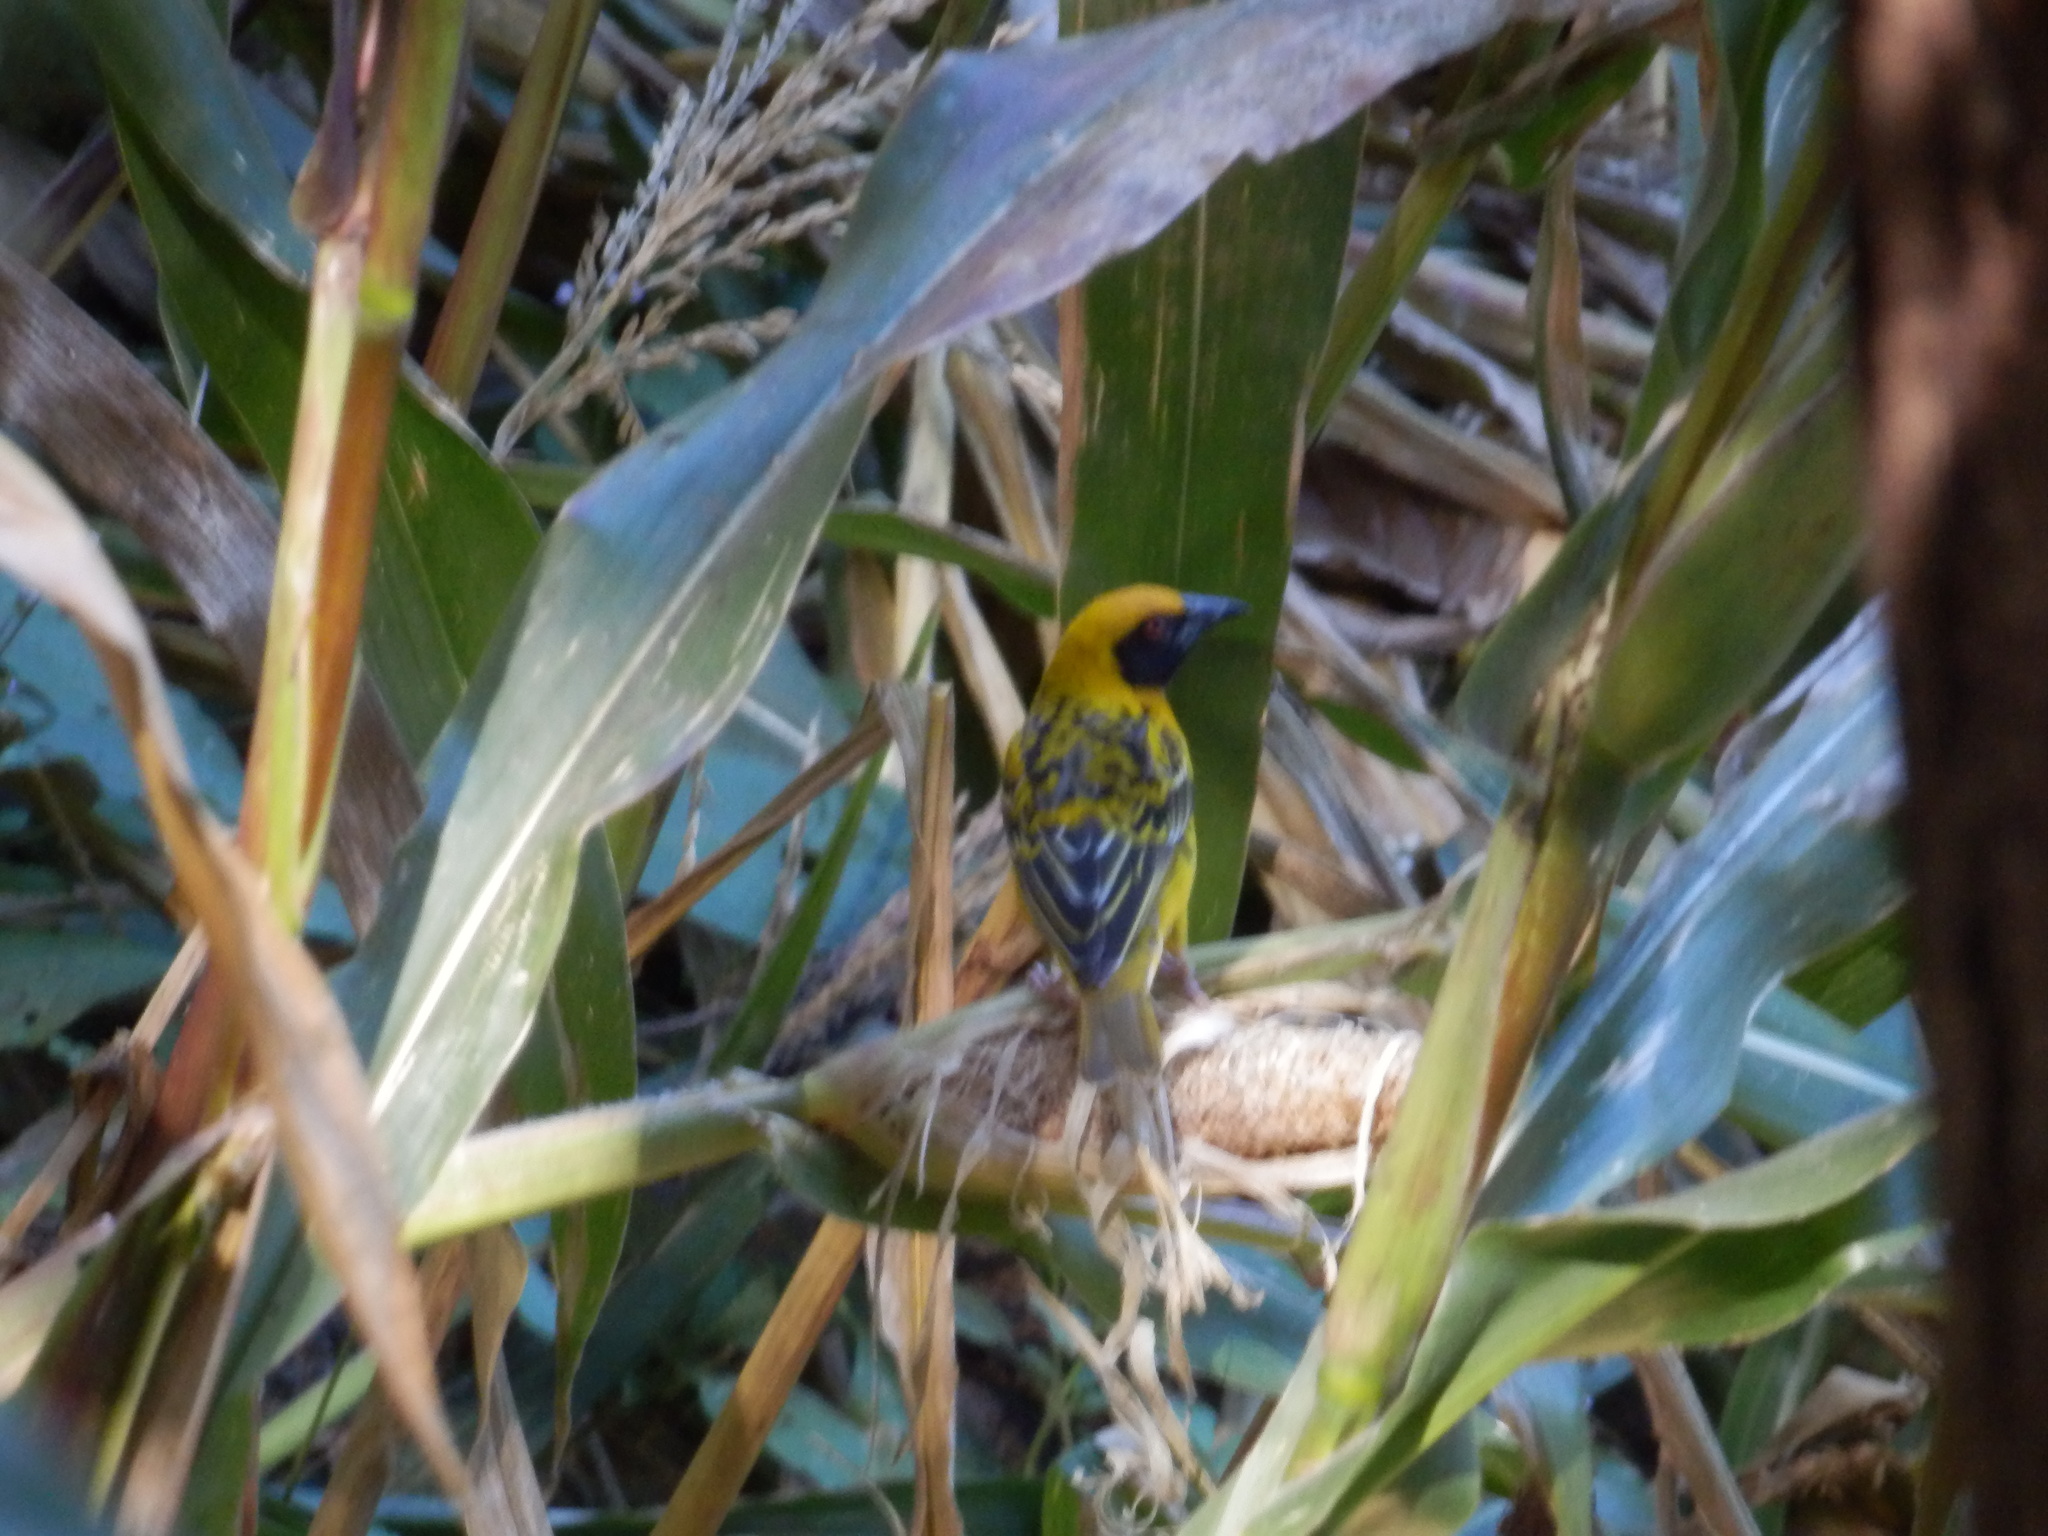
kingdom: Animalia
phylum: Chordata
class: Aves
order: Passeriformes
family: Ploceidae
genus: Ploceus
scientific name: Ploceus cucullatus
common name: Village weaver
